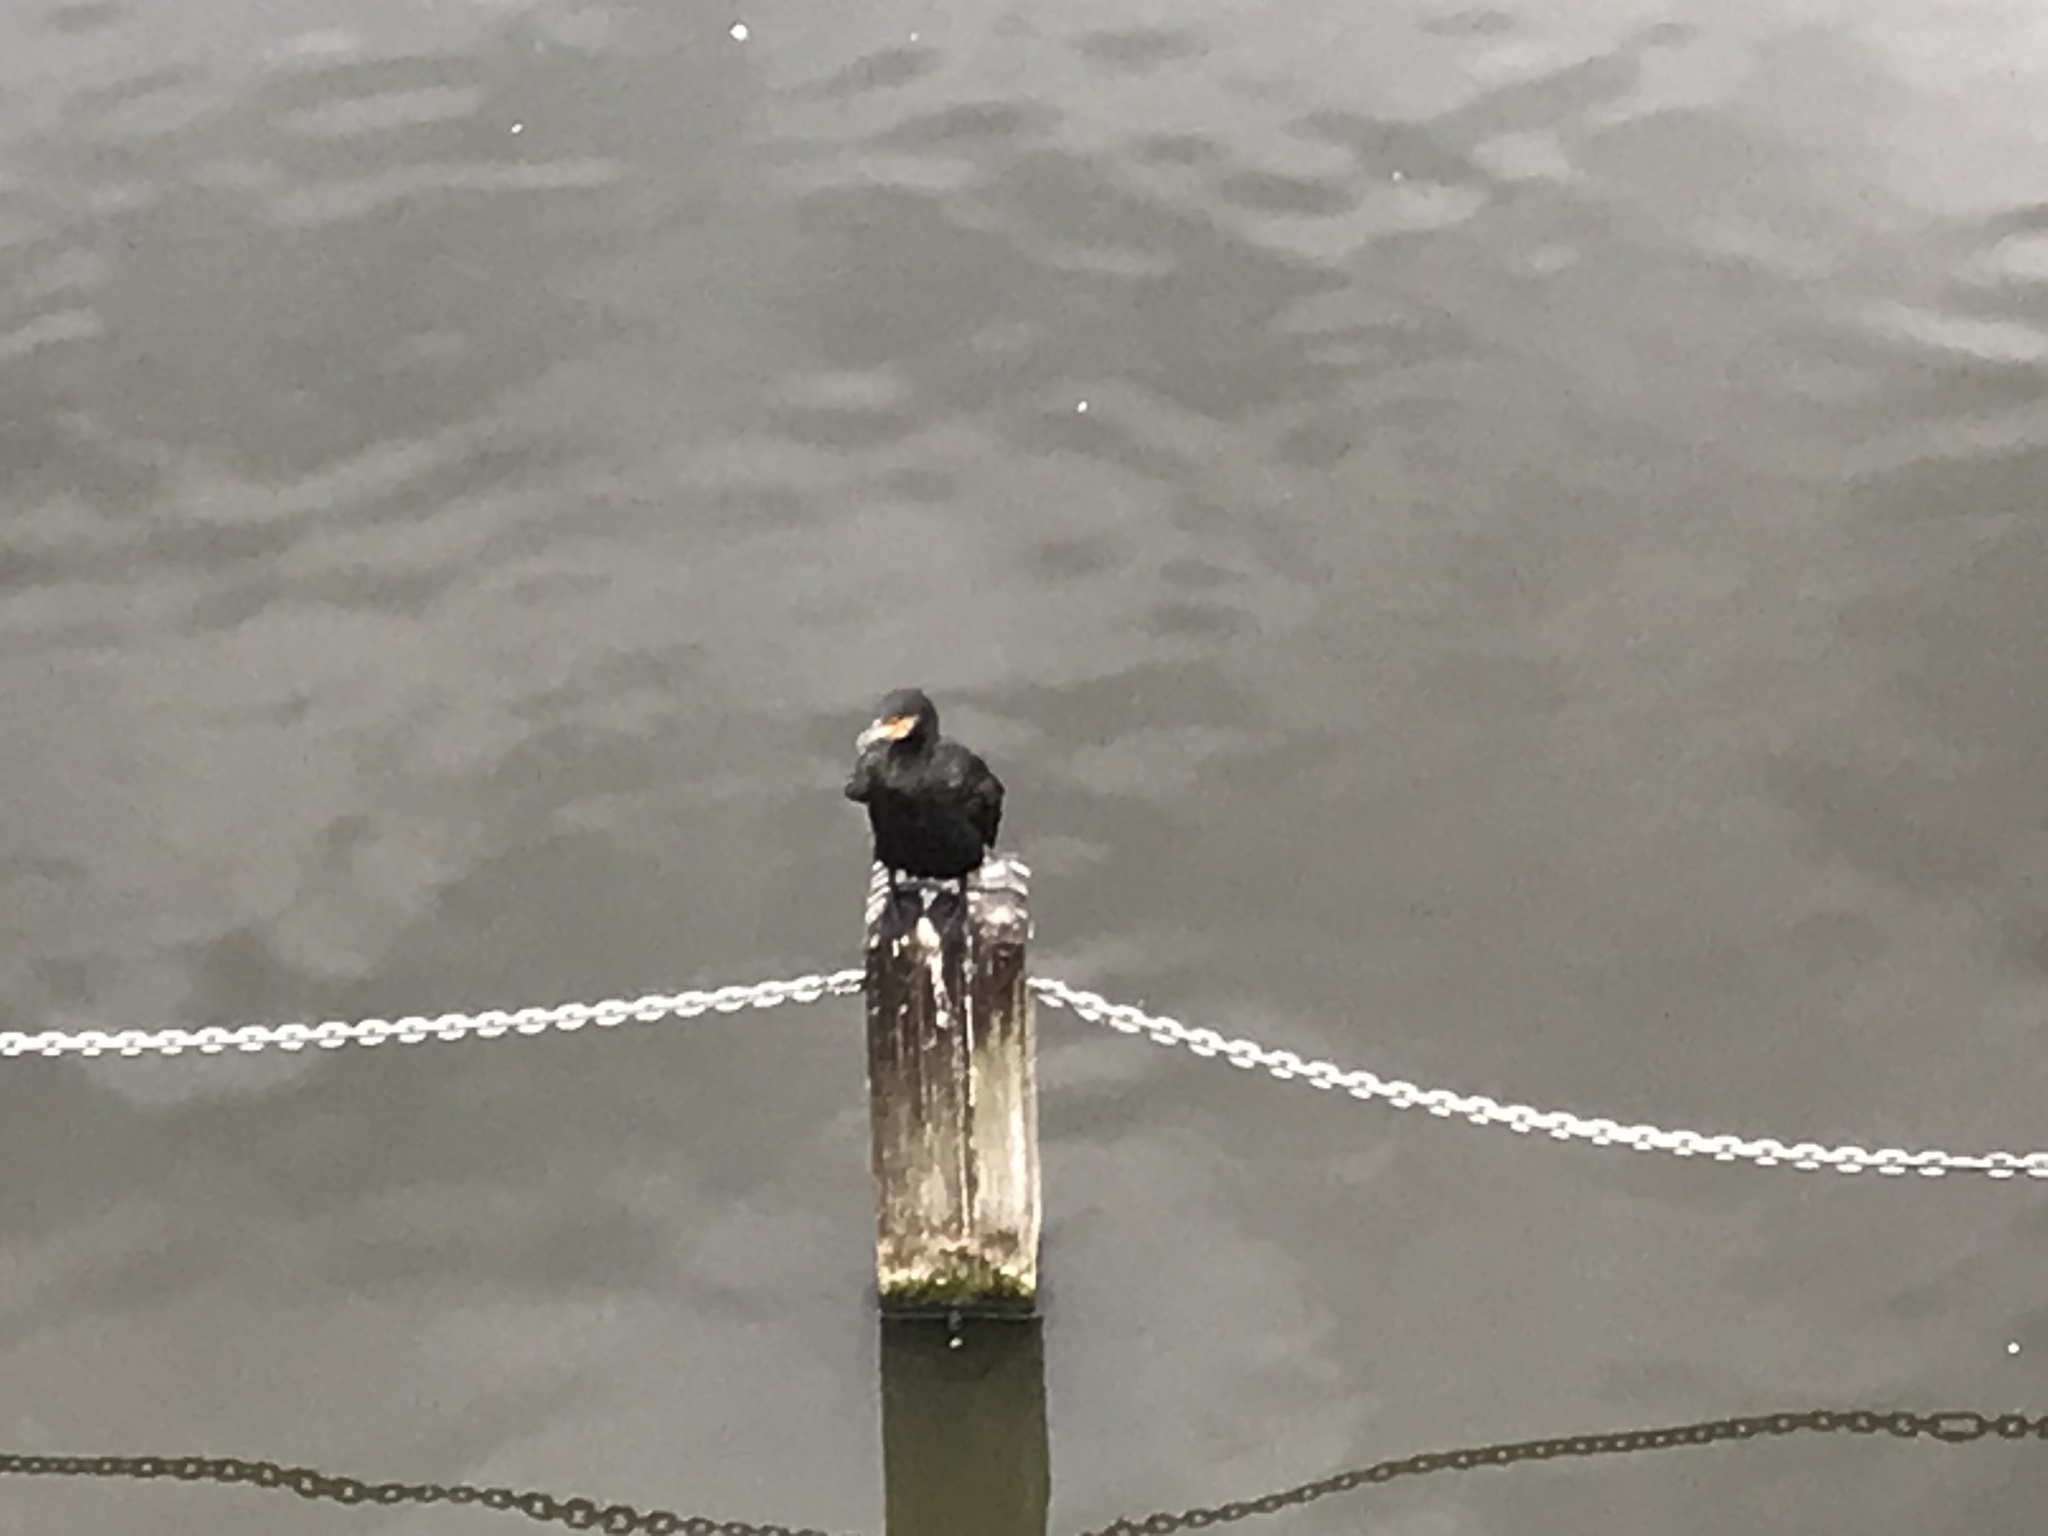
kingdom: Animalia
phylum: Chordata
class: Aves
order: Suliformes
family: Phalacrocoracidae
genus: Phalacrocorax
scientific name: Phalacrocorax carbo
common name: Great cormorant
